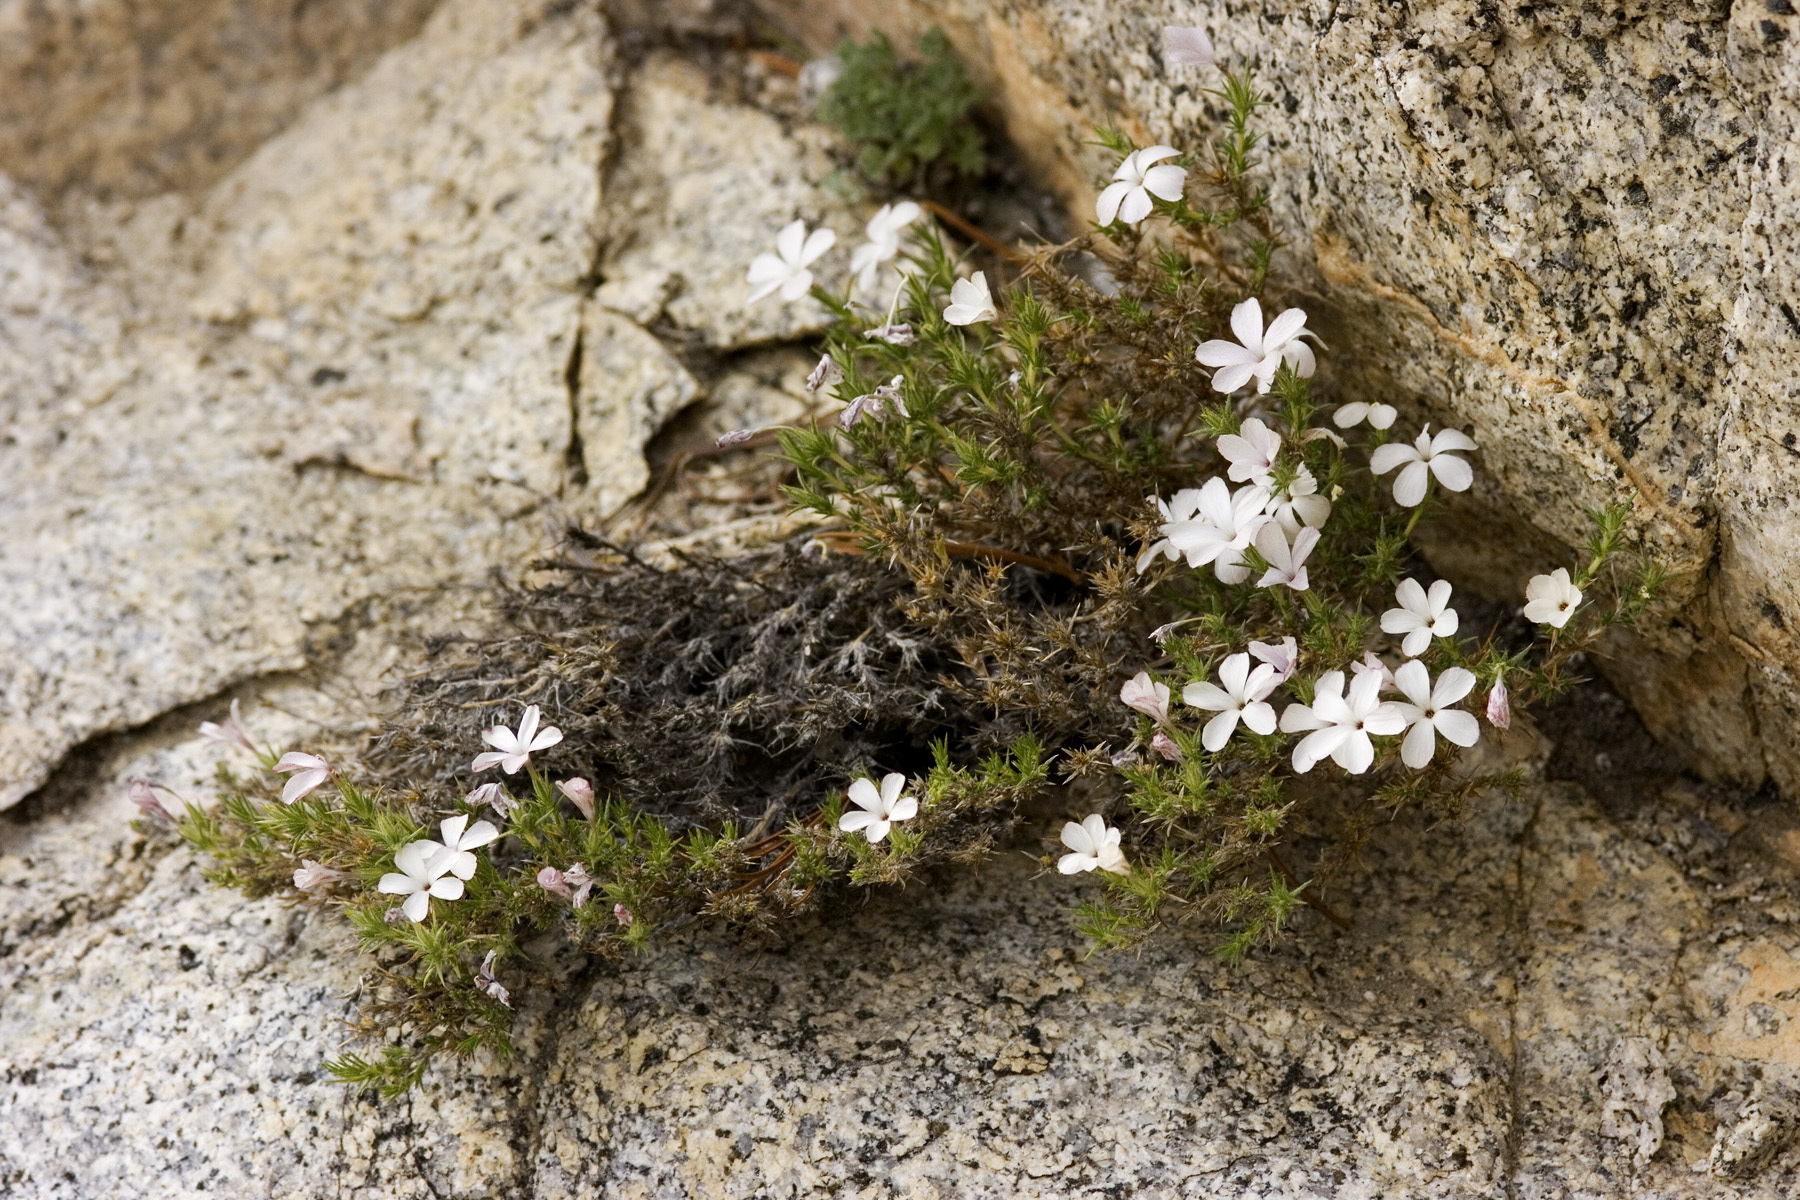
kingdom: Plantae
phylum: Tracheophyta
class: Magnoliopsida
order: Ericales
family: Polemoniaceae
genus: Linanthus
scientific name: Linanthus pungens
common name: Granite prickly phlox
